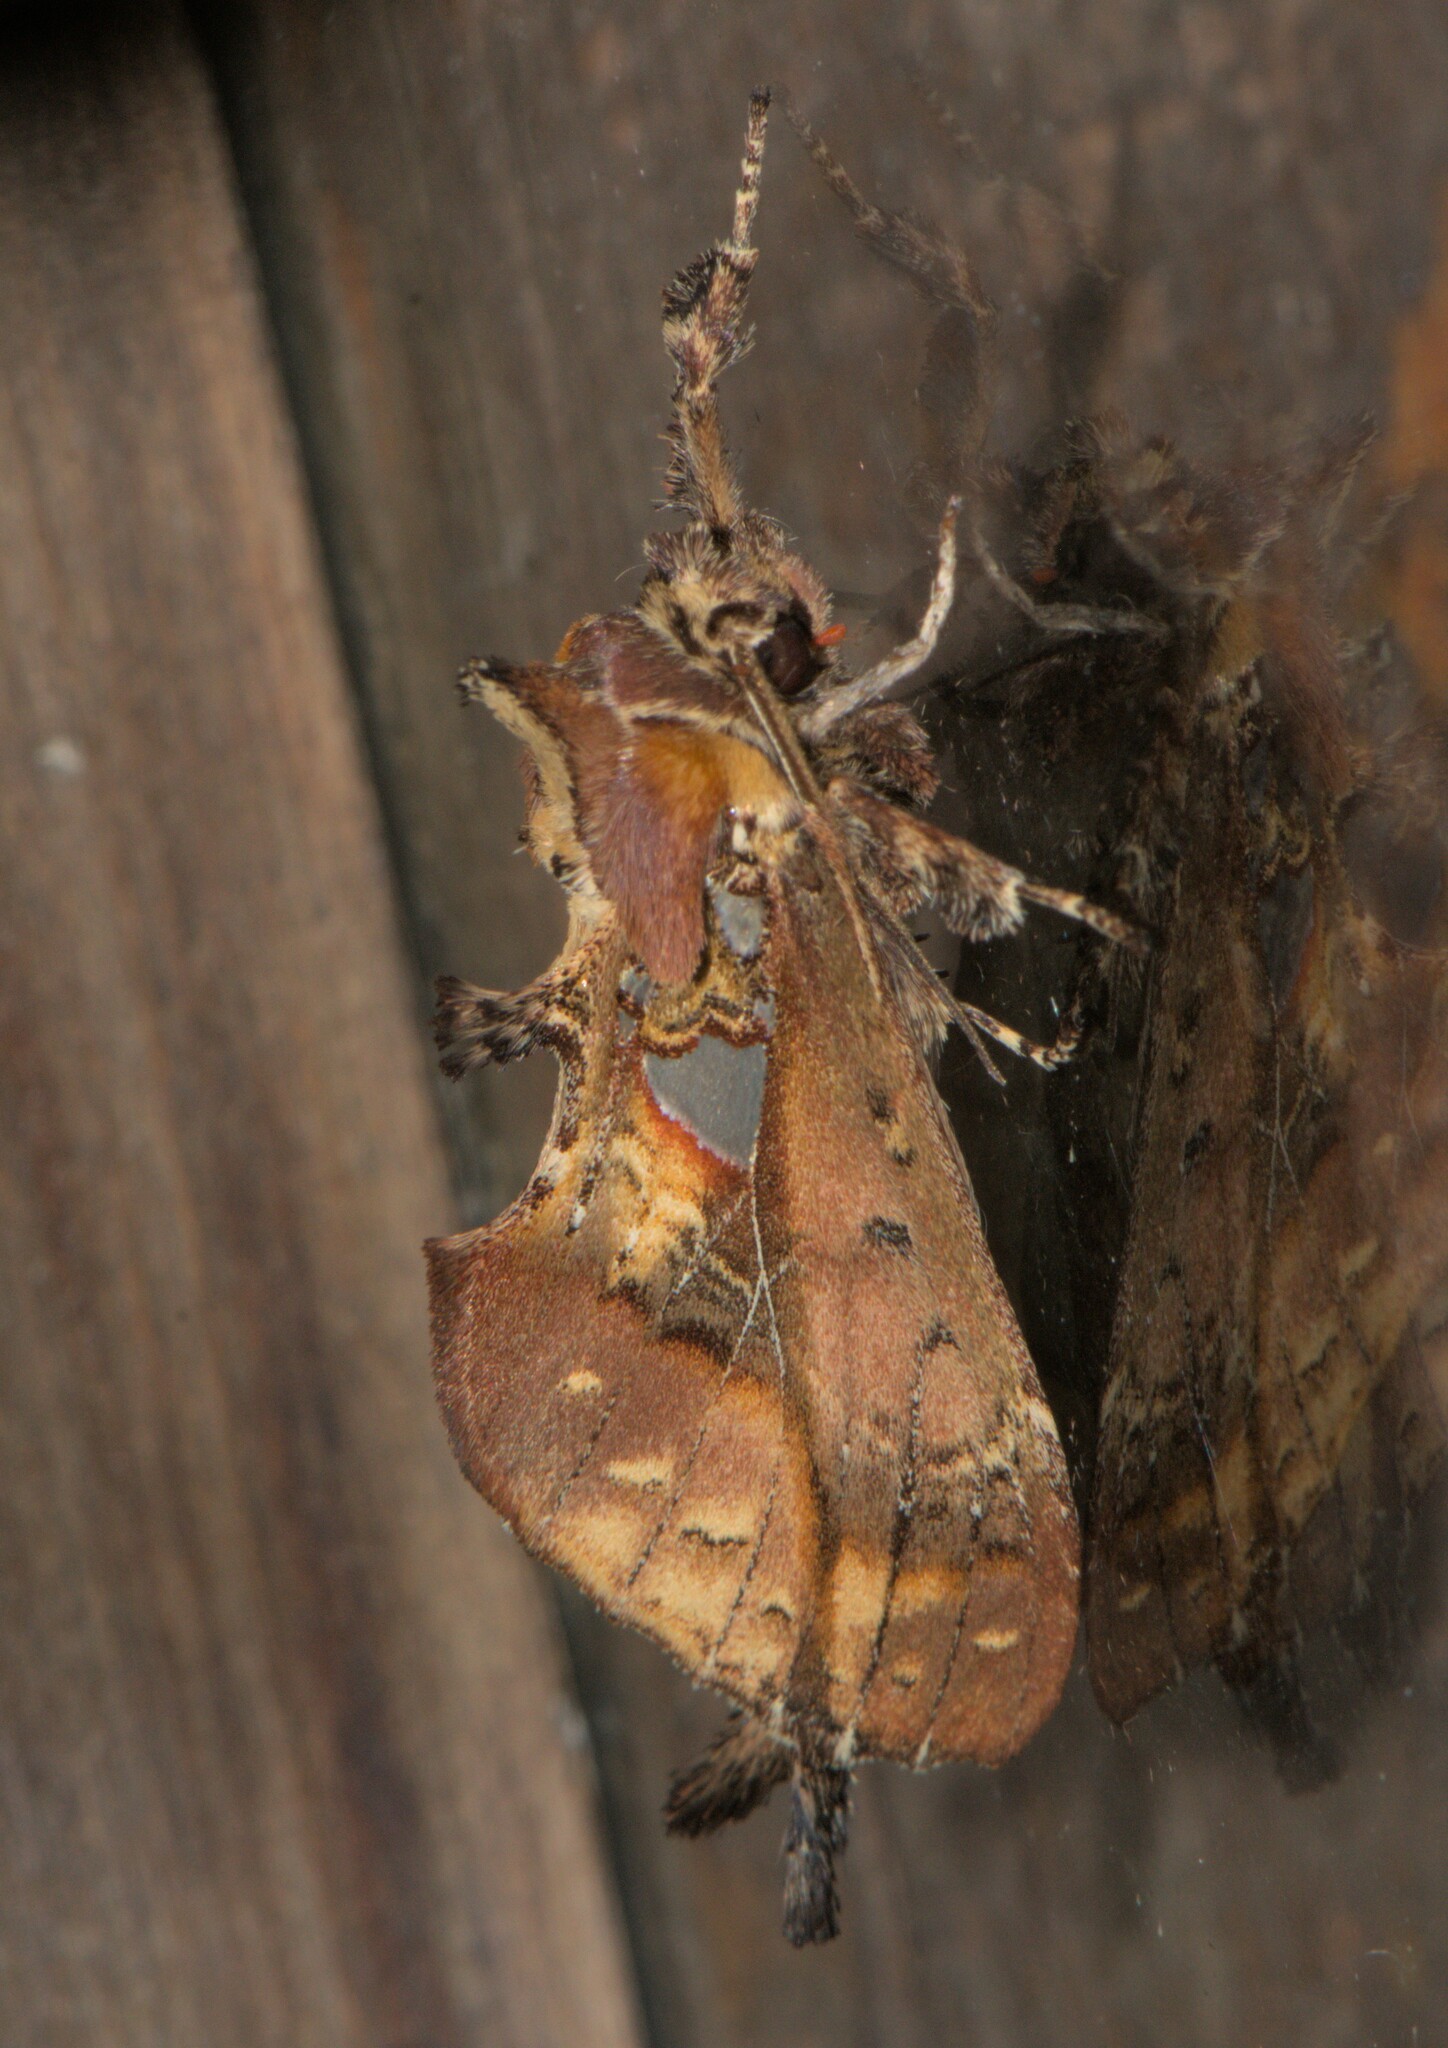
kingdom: Animalia
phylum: Arthropoda
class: Insecta
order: Lepidoptera
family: Notodontidae
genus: Ginshachia
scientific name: Ginshachia gemmifera
